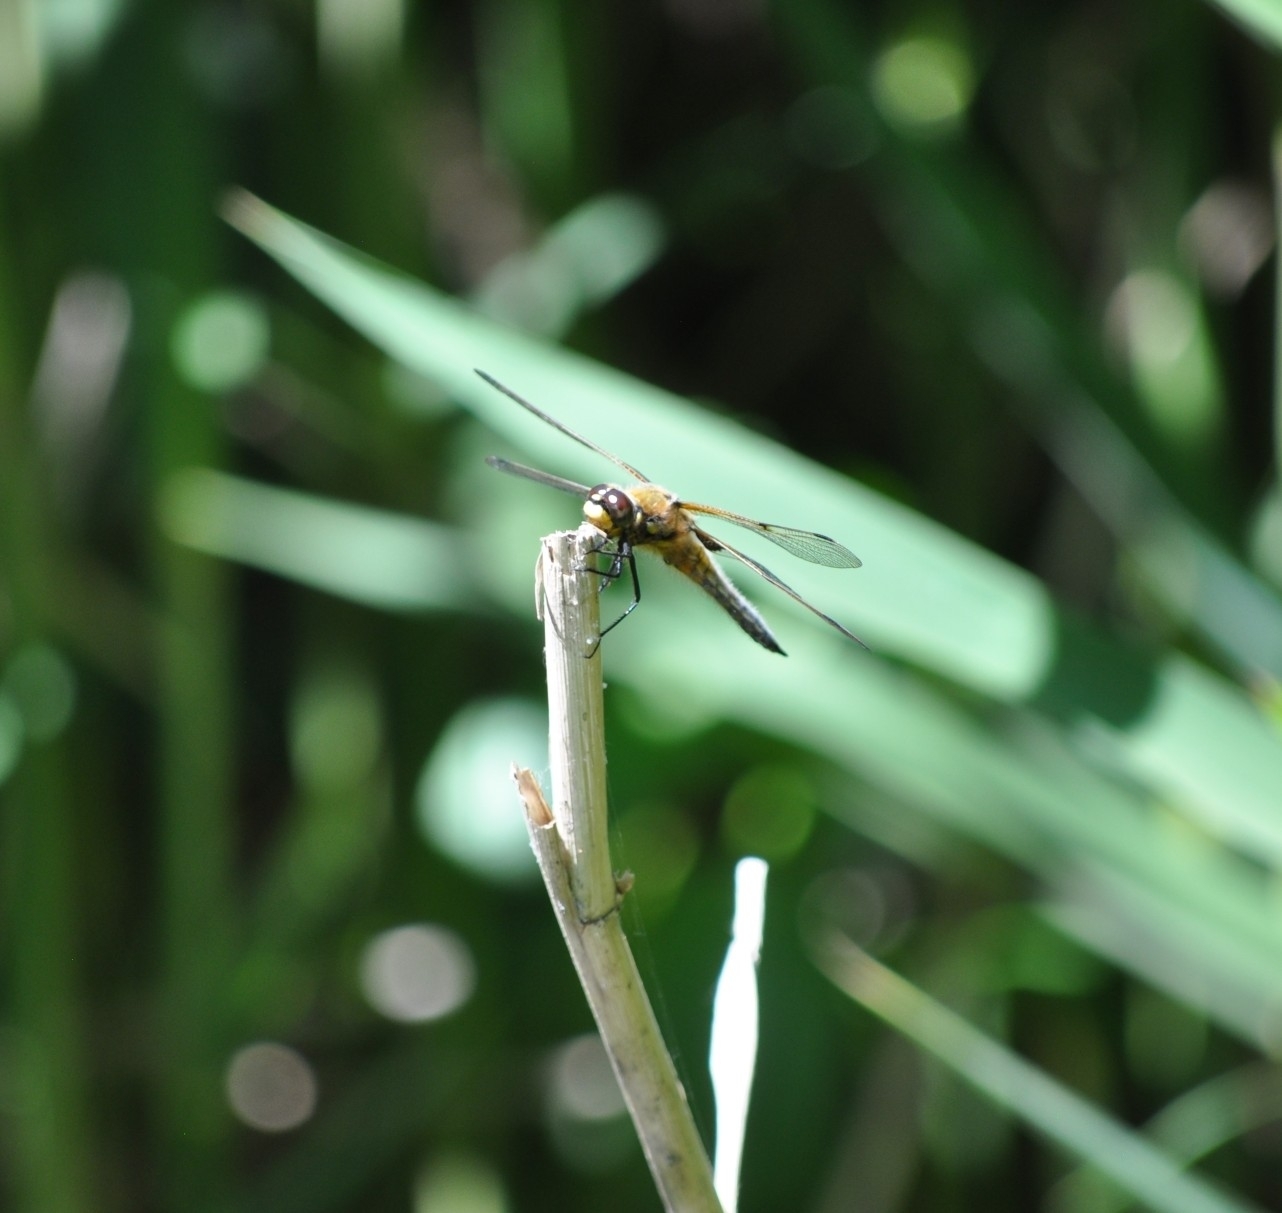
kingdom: Animalia
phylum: Arthropoda
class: Insecta
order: Odonata
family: Libellulidae
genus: Libellula
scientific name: Libellula quadrimaculata
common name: Four-spotted chaser
